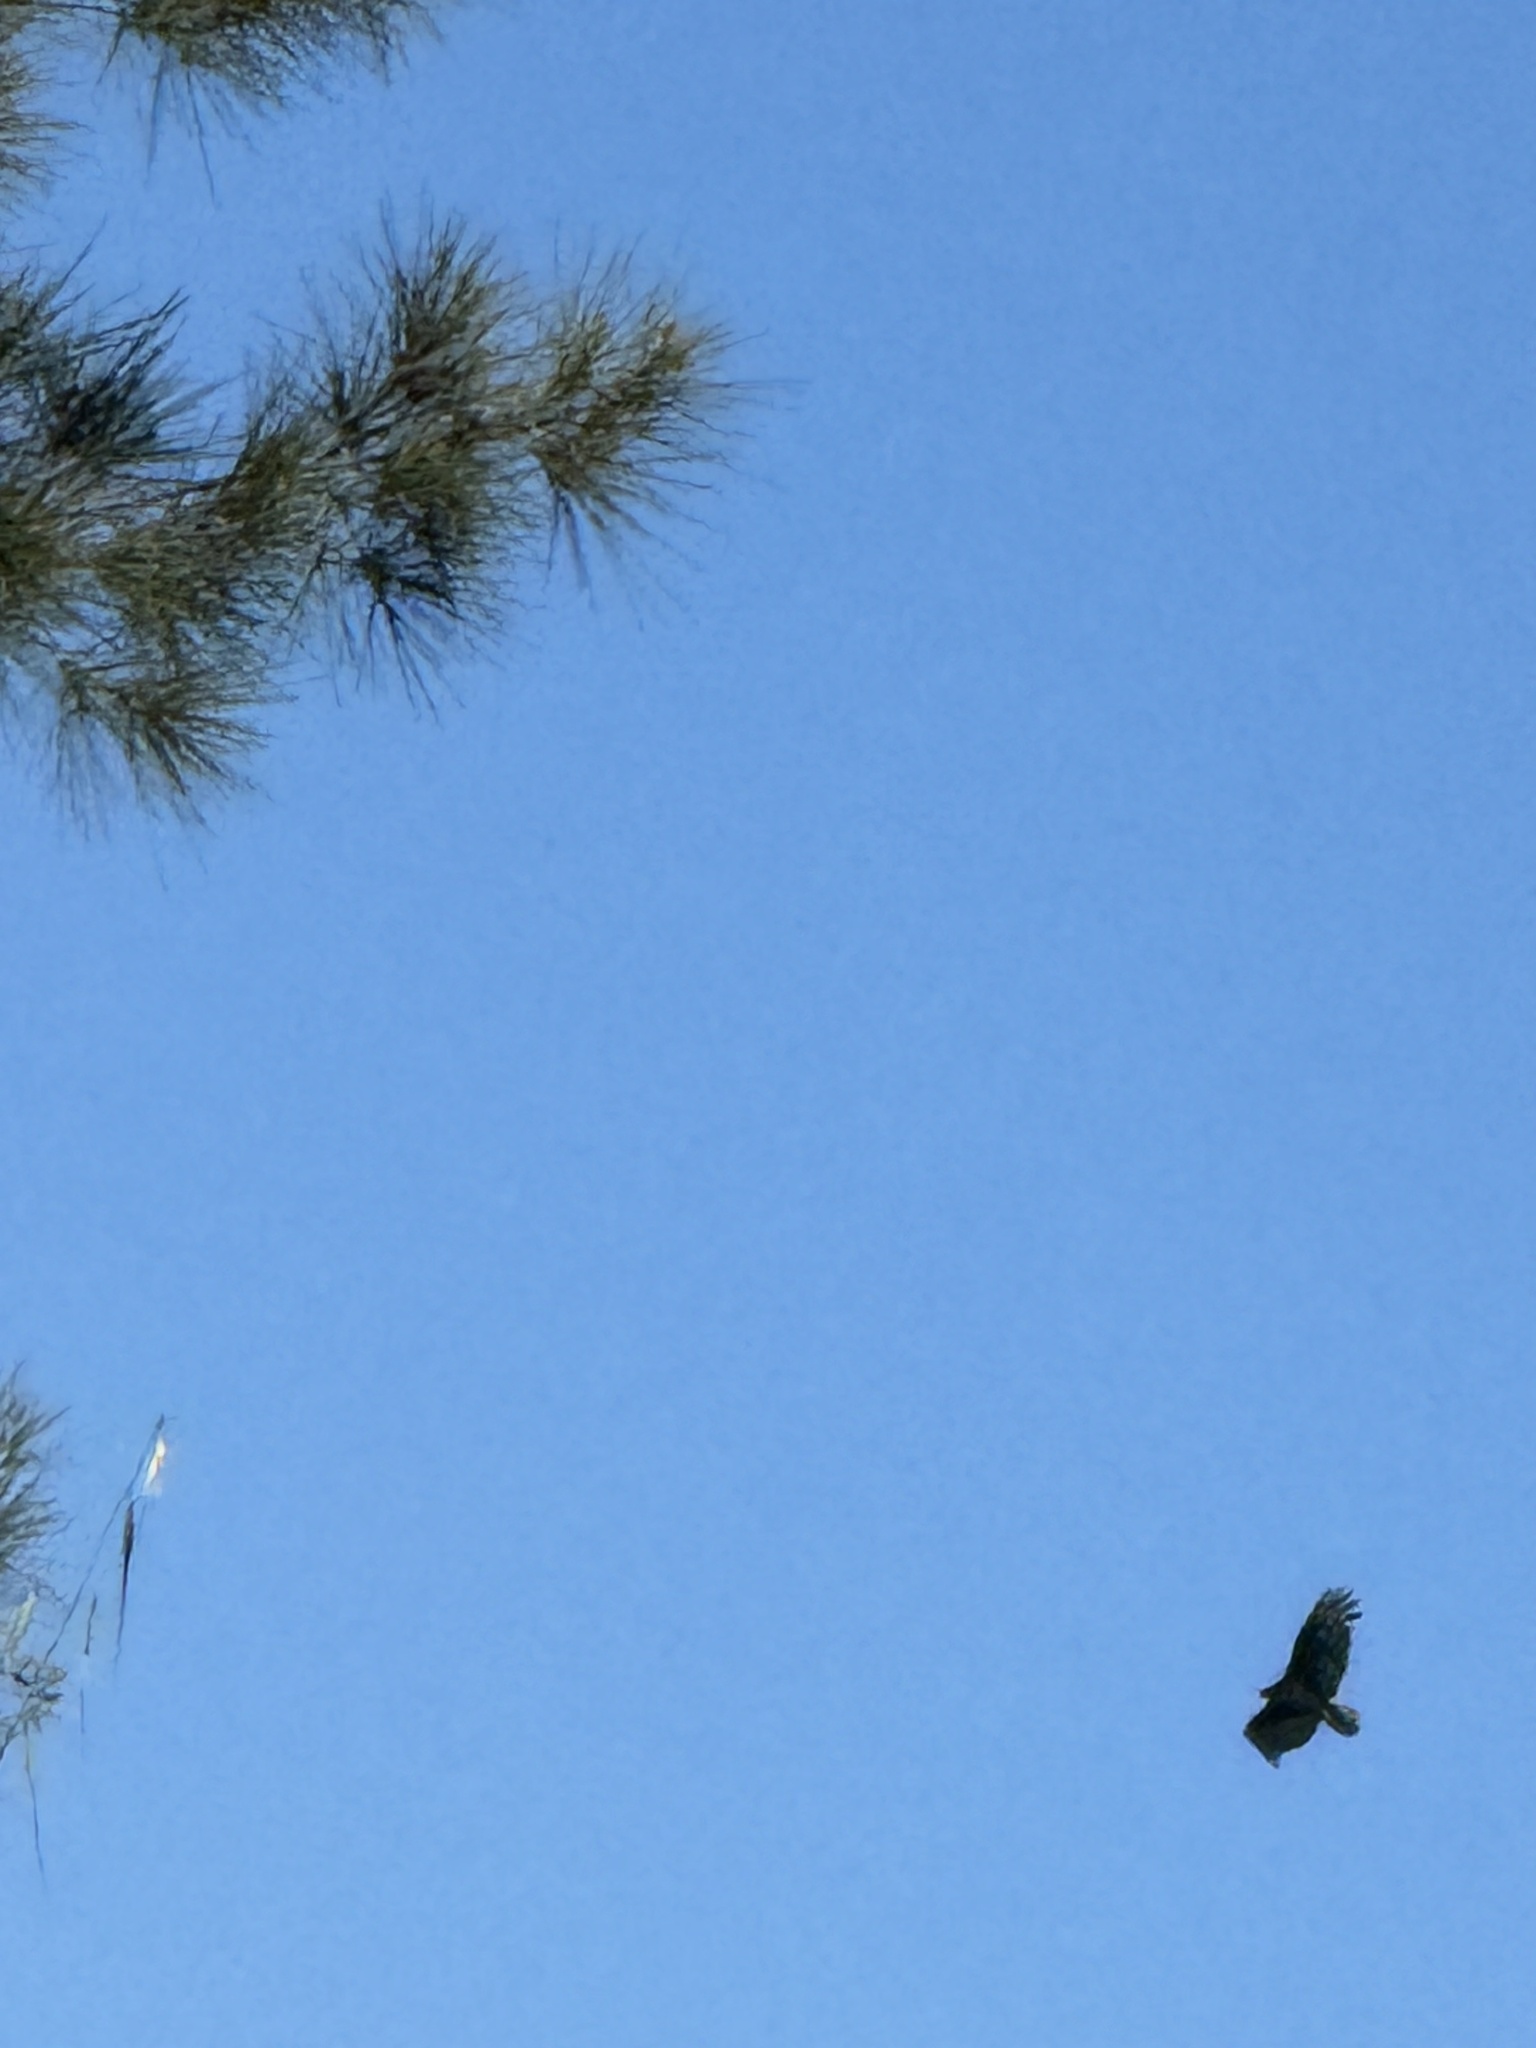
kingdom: Animalia
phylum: Chordata
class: Aves
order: Accipitriformes
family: Cathartidae
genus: Cathartes
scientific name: Cathartes aura
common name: Turkey vulture
